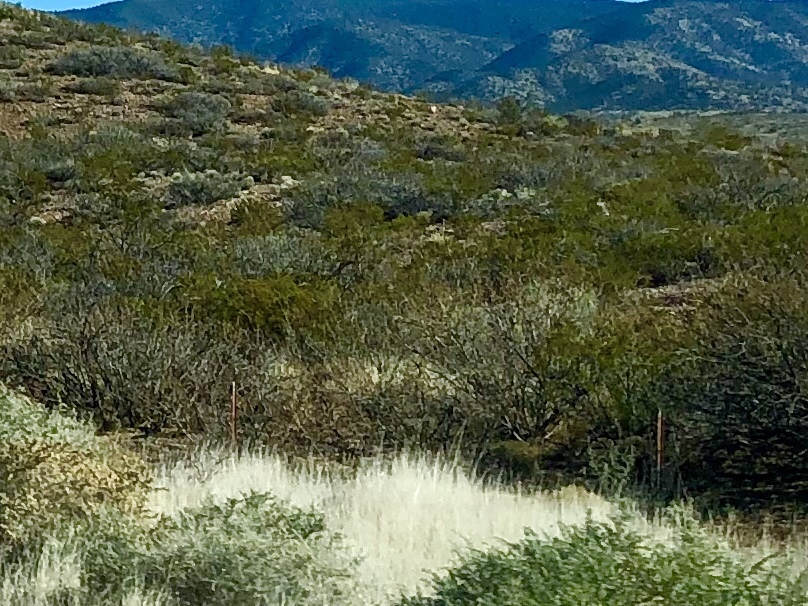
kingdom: Plantae
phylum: Tracheophyta
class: Magnoliopsida
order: Zygophyllales
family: Zygophyllaceae
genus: Larrea
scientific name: Larrea tridentata
